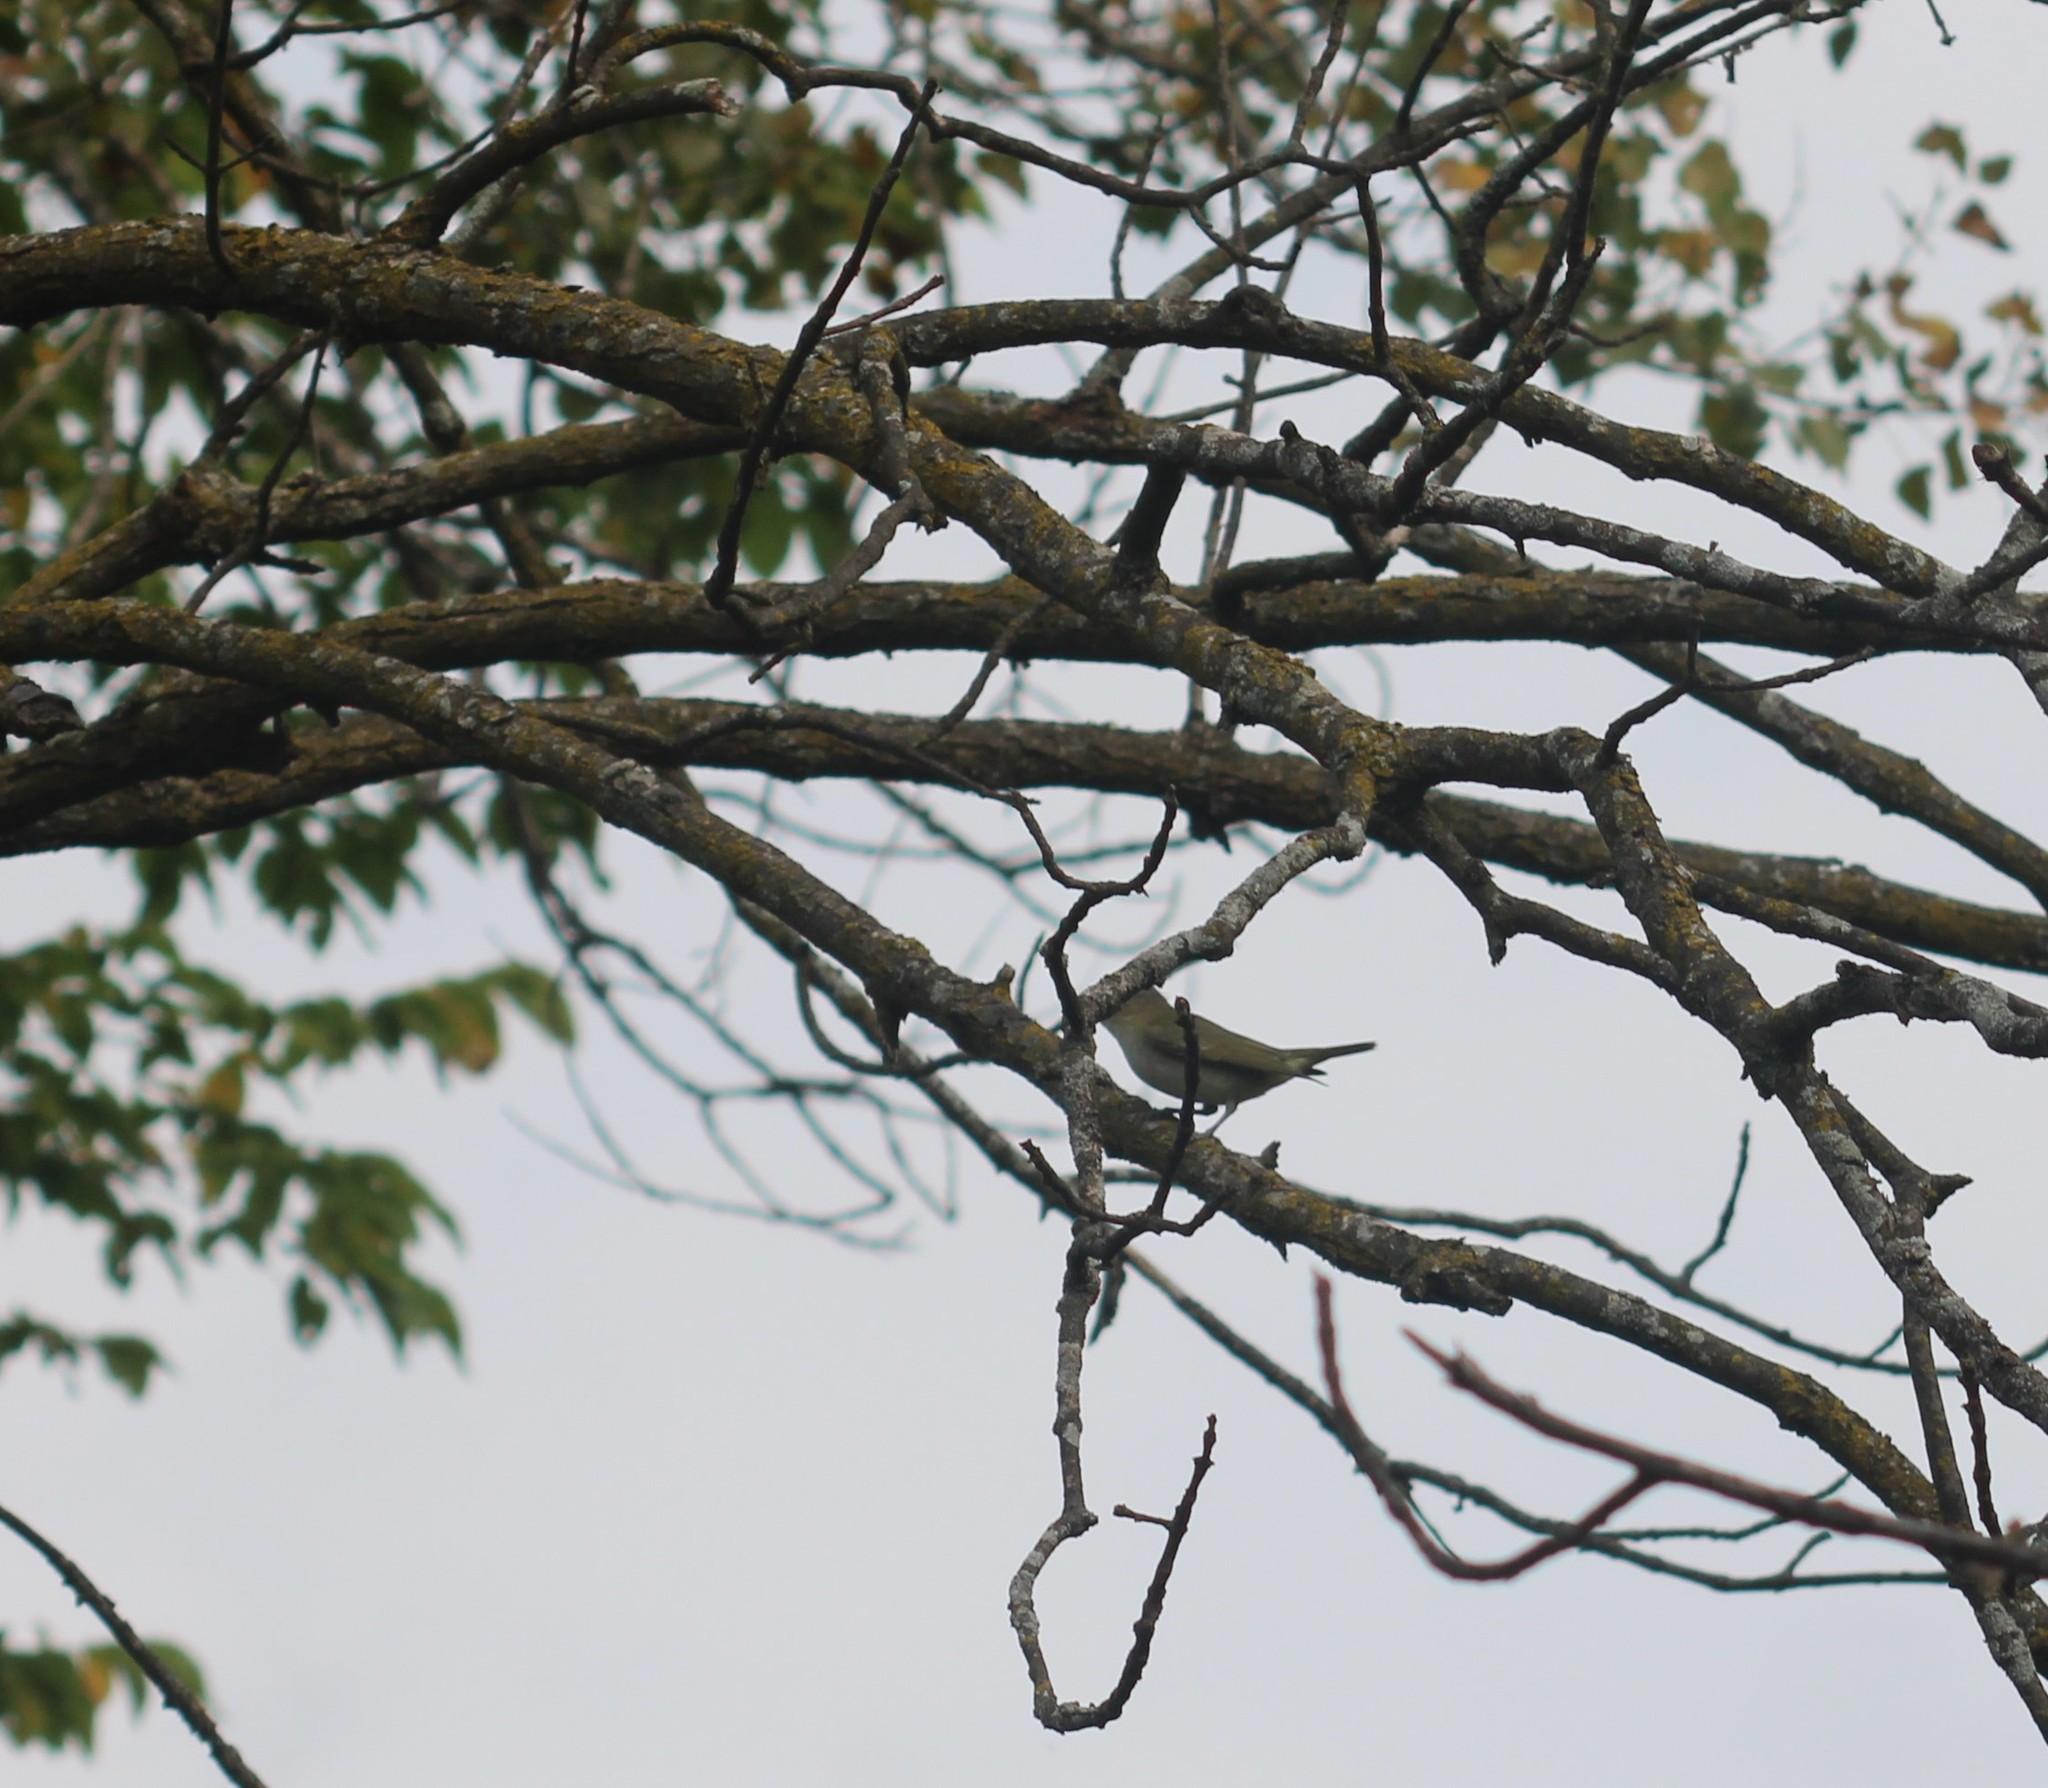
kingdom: Animalia
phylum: Chordata
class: Aves
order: Passeriformes
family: Vireonidae
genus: Vireo
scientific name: Vireo olivaceus
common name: Red-eyed vireo
